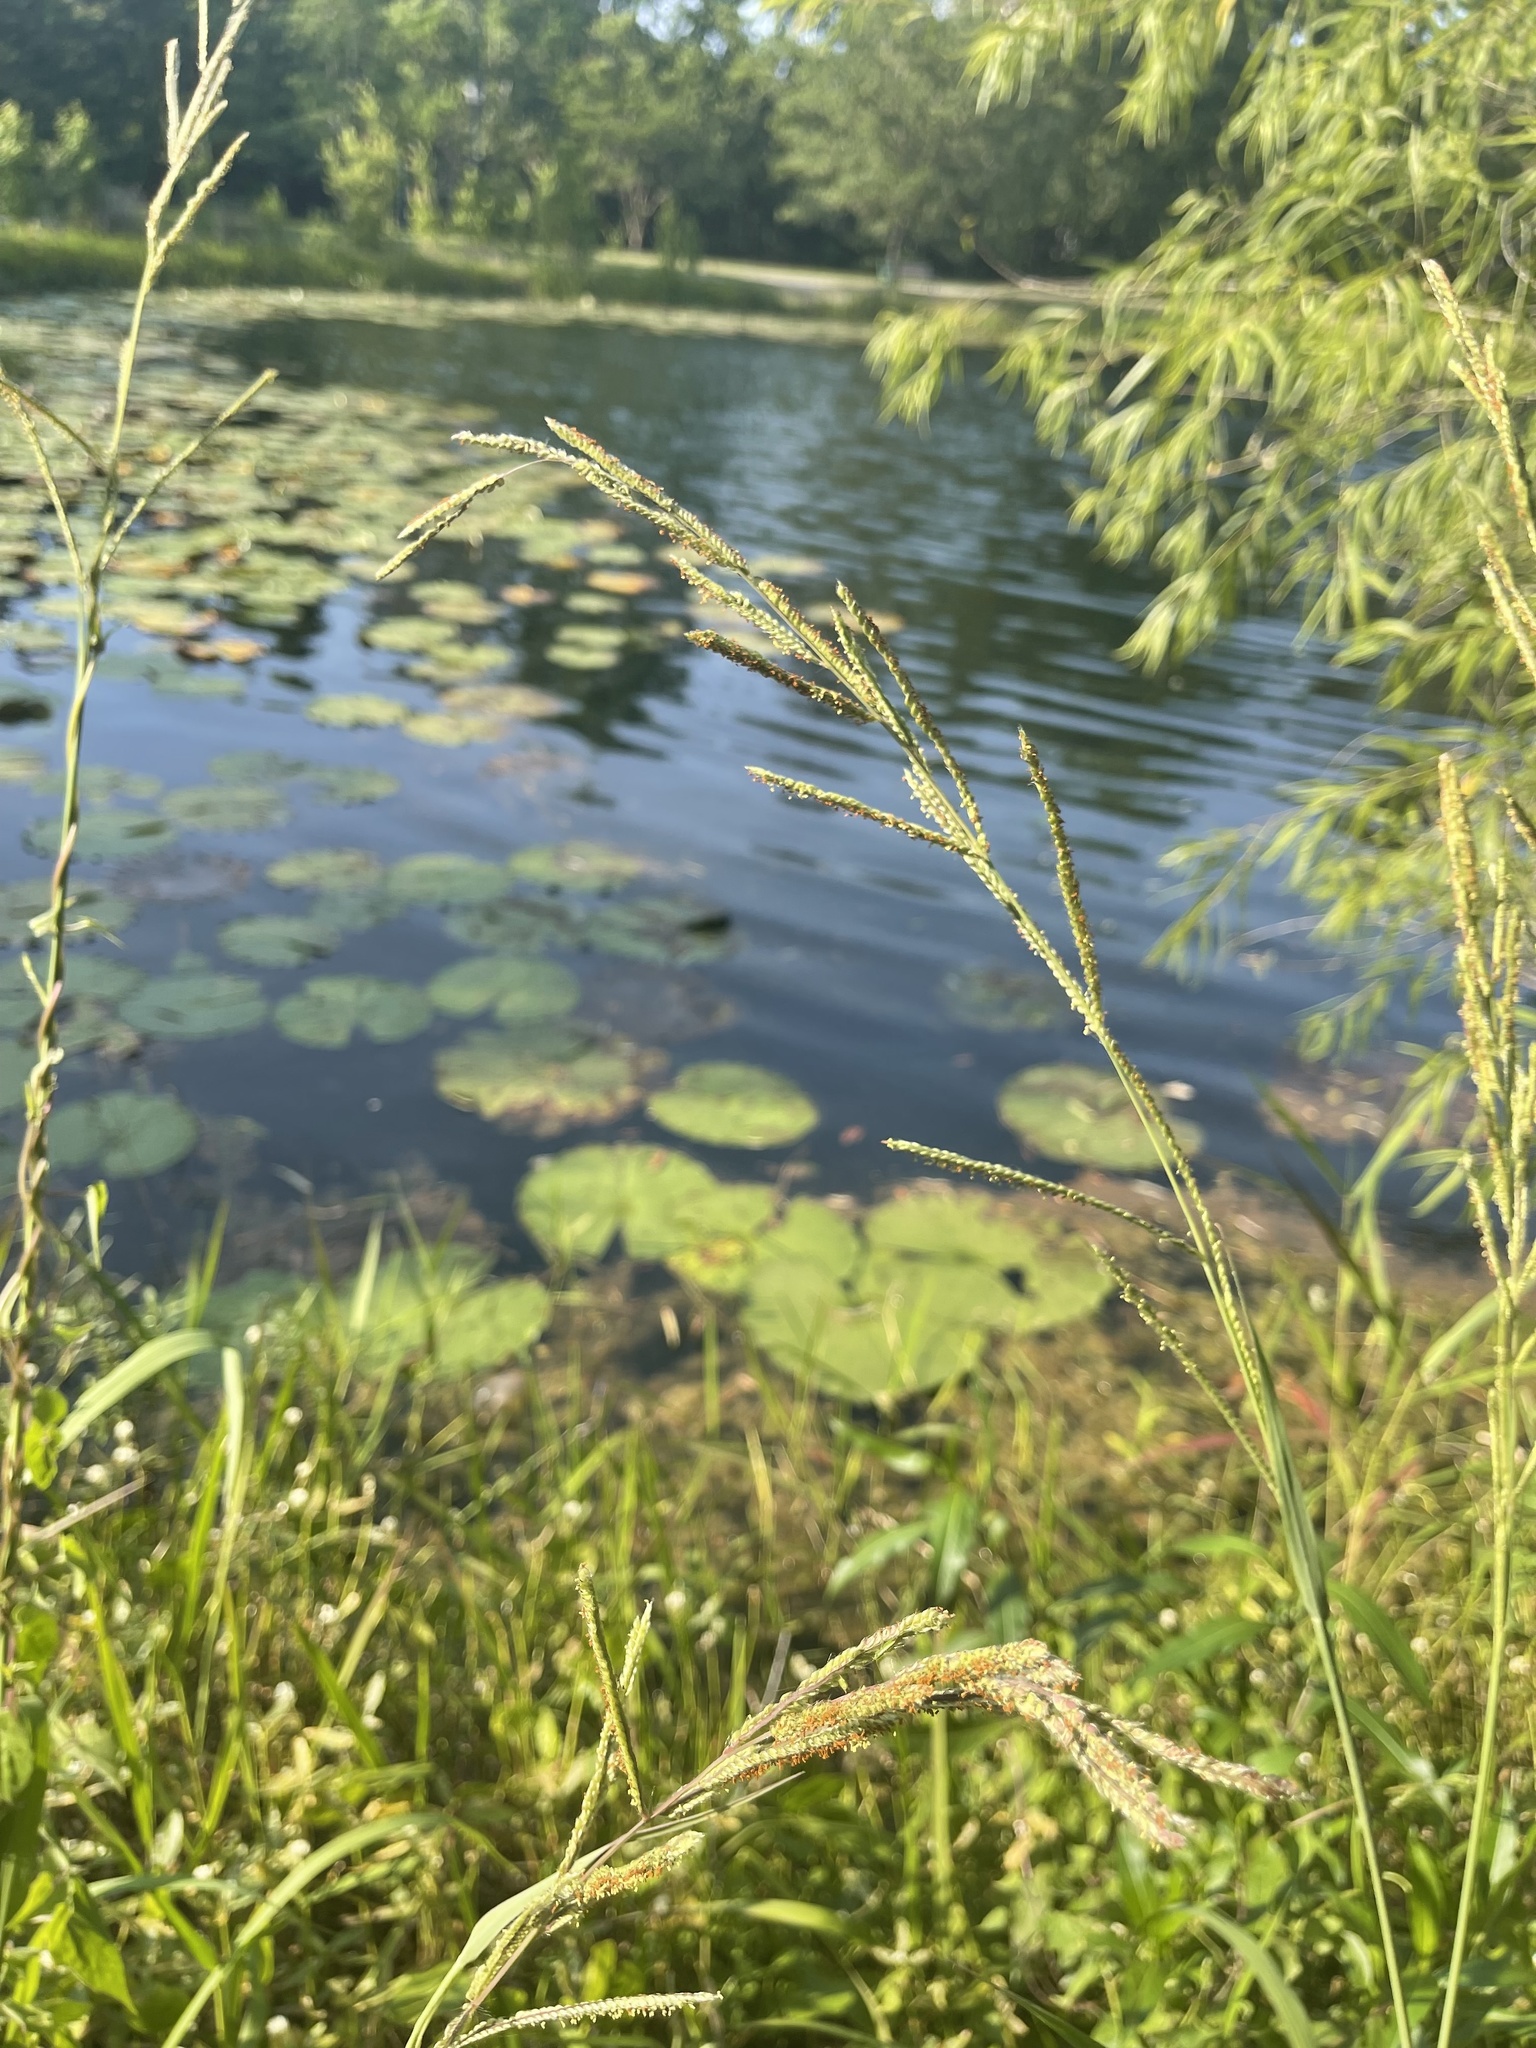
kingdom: Plantae
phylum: Tracheophyta
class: Liliopsida
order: Poales
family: Poaceae
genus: Paspalum
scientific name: Paspalum urvillei
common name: Vasey's grass
